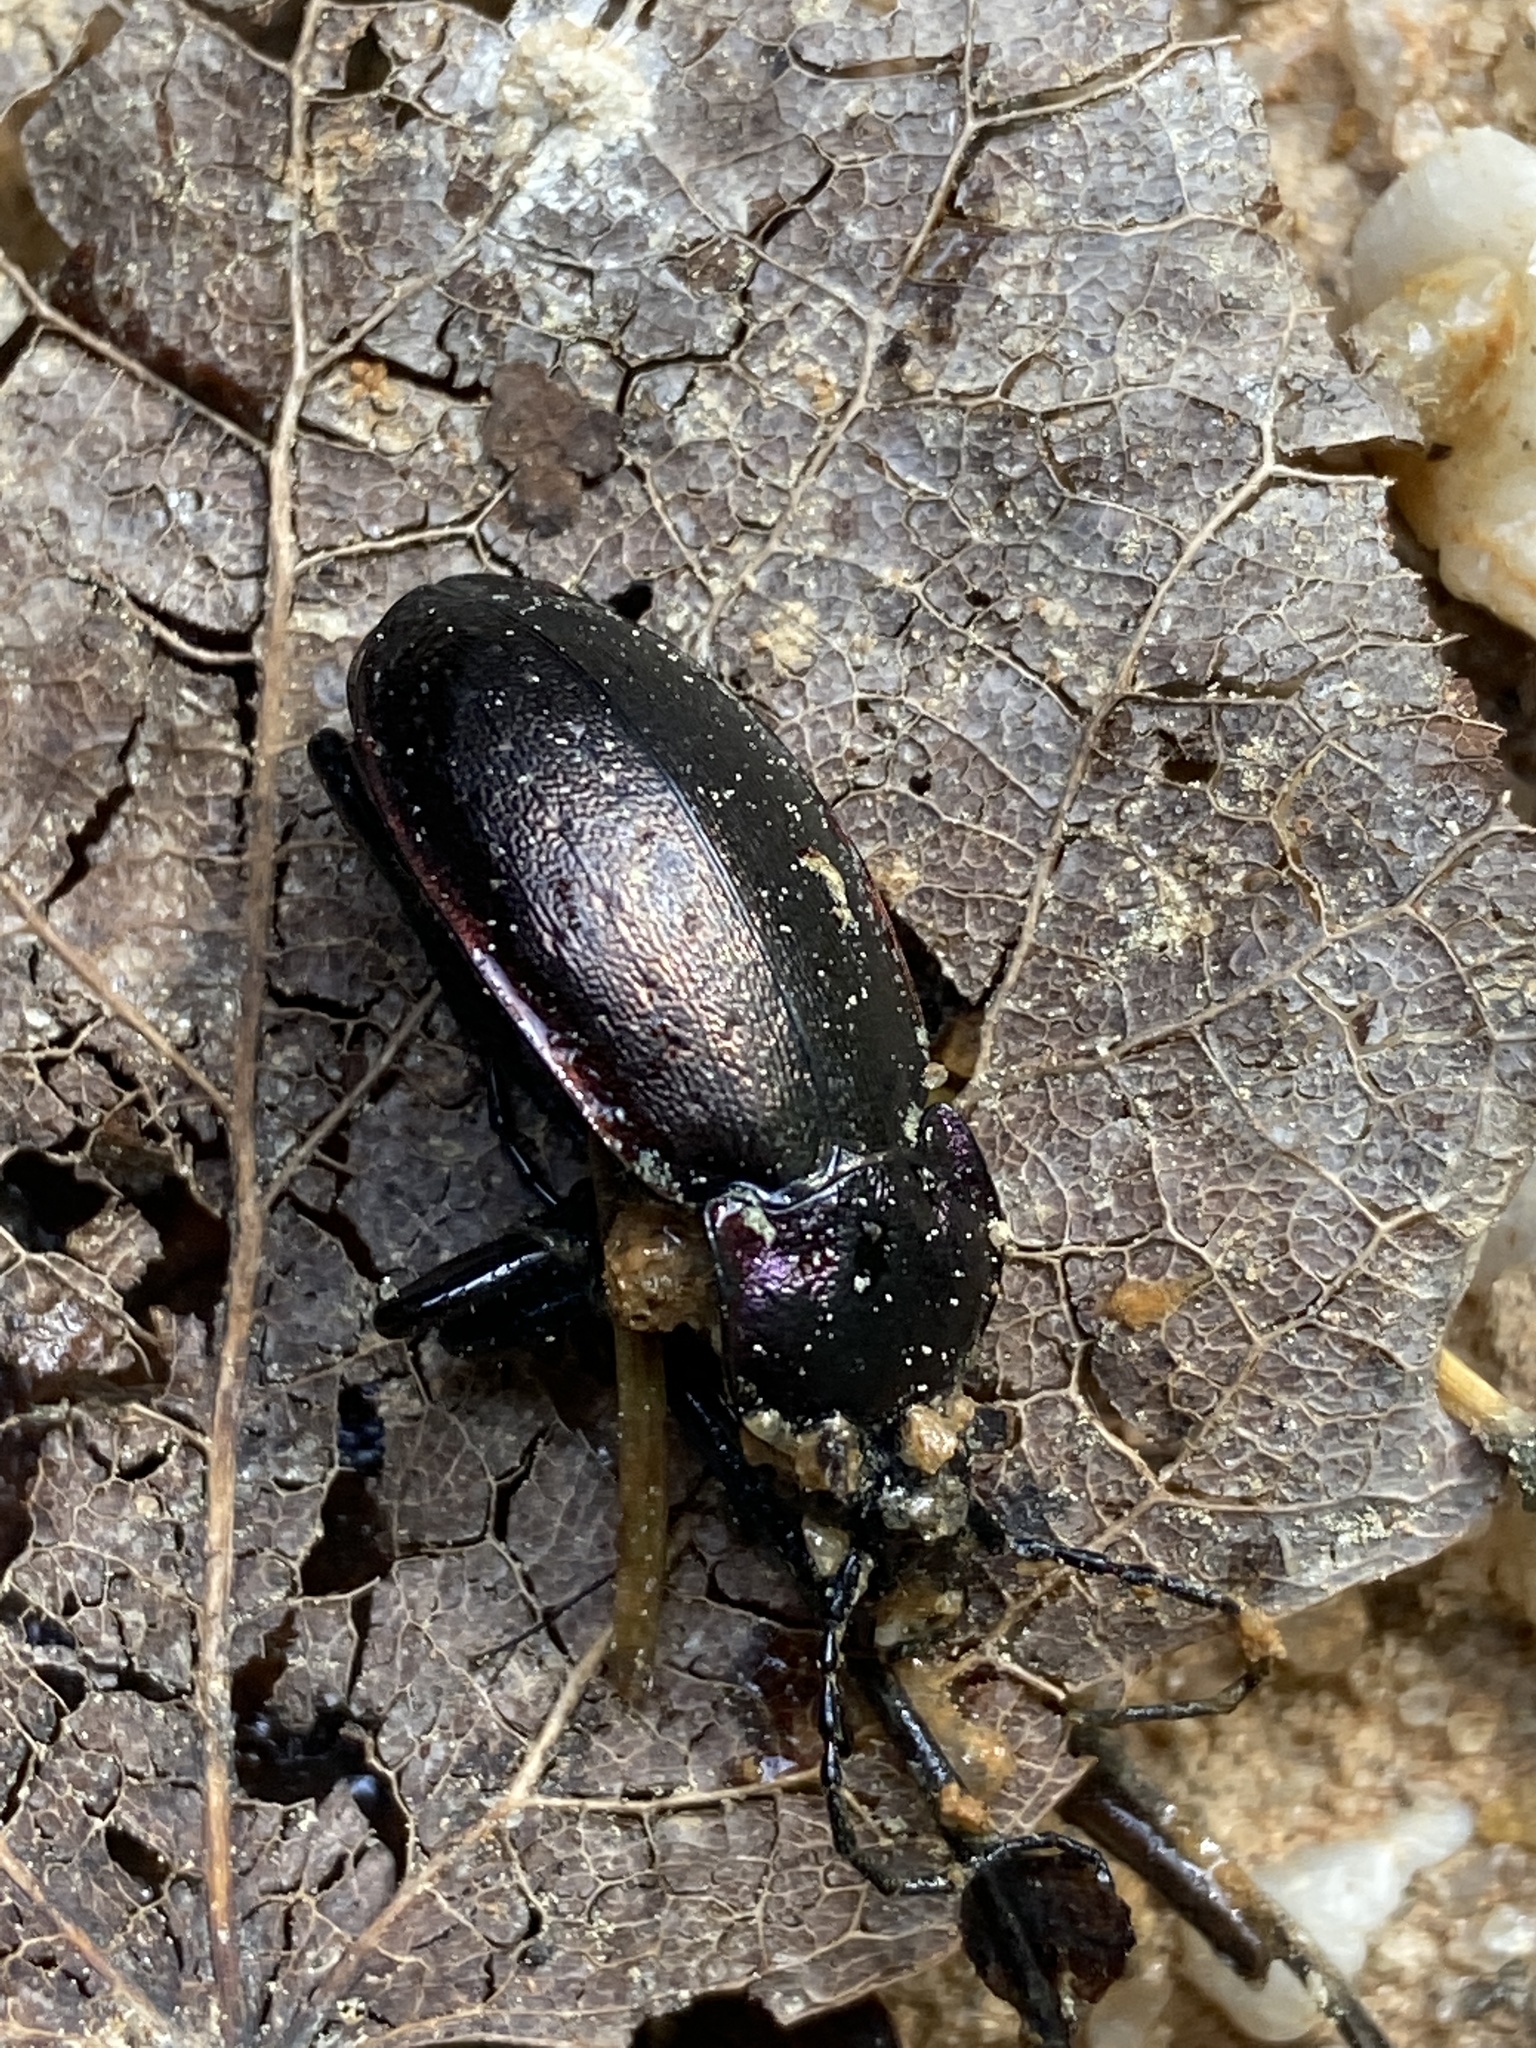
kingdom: Animalia
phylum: Arthropoda
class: Insecta
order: Coleoptera
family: Carabidae
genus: Carabus
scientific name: Carabus nemoralis
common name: European ground beetle
